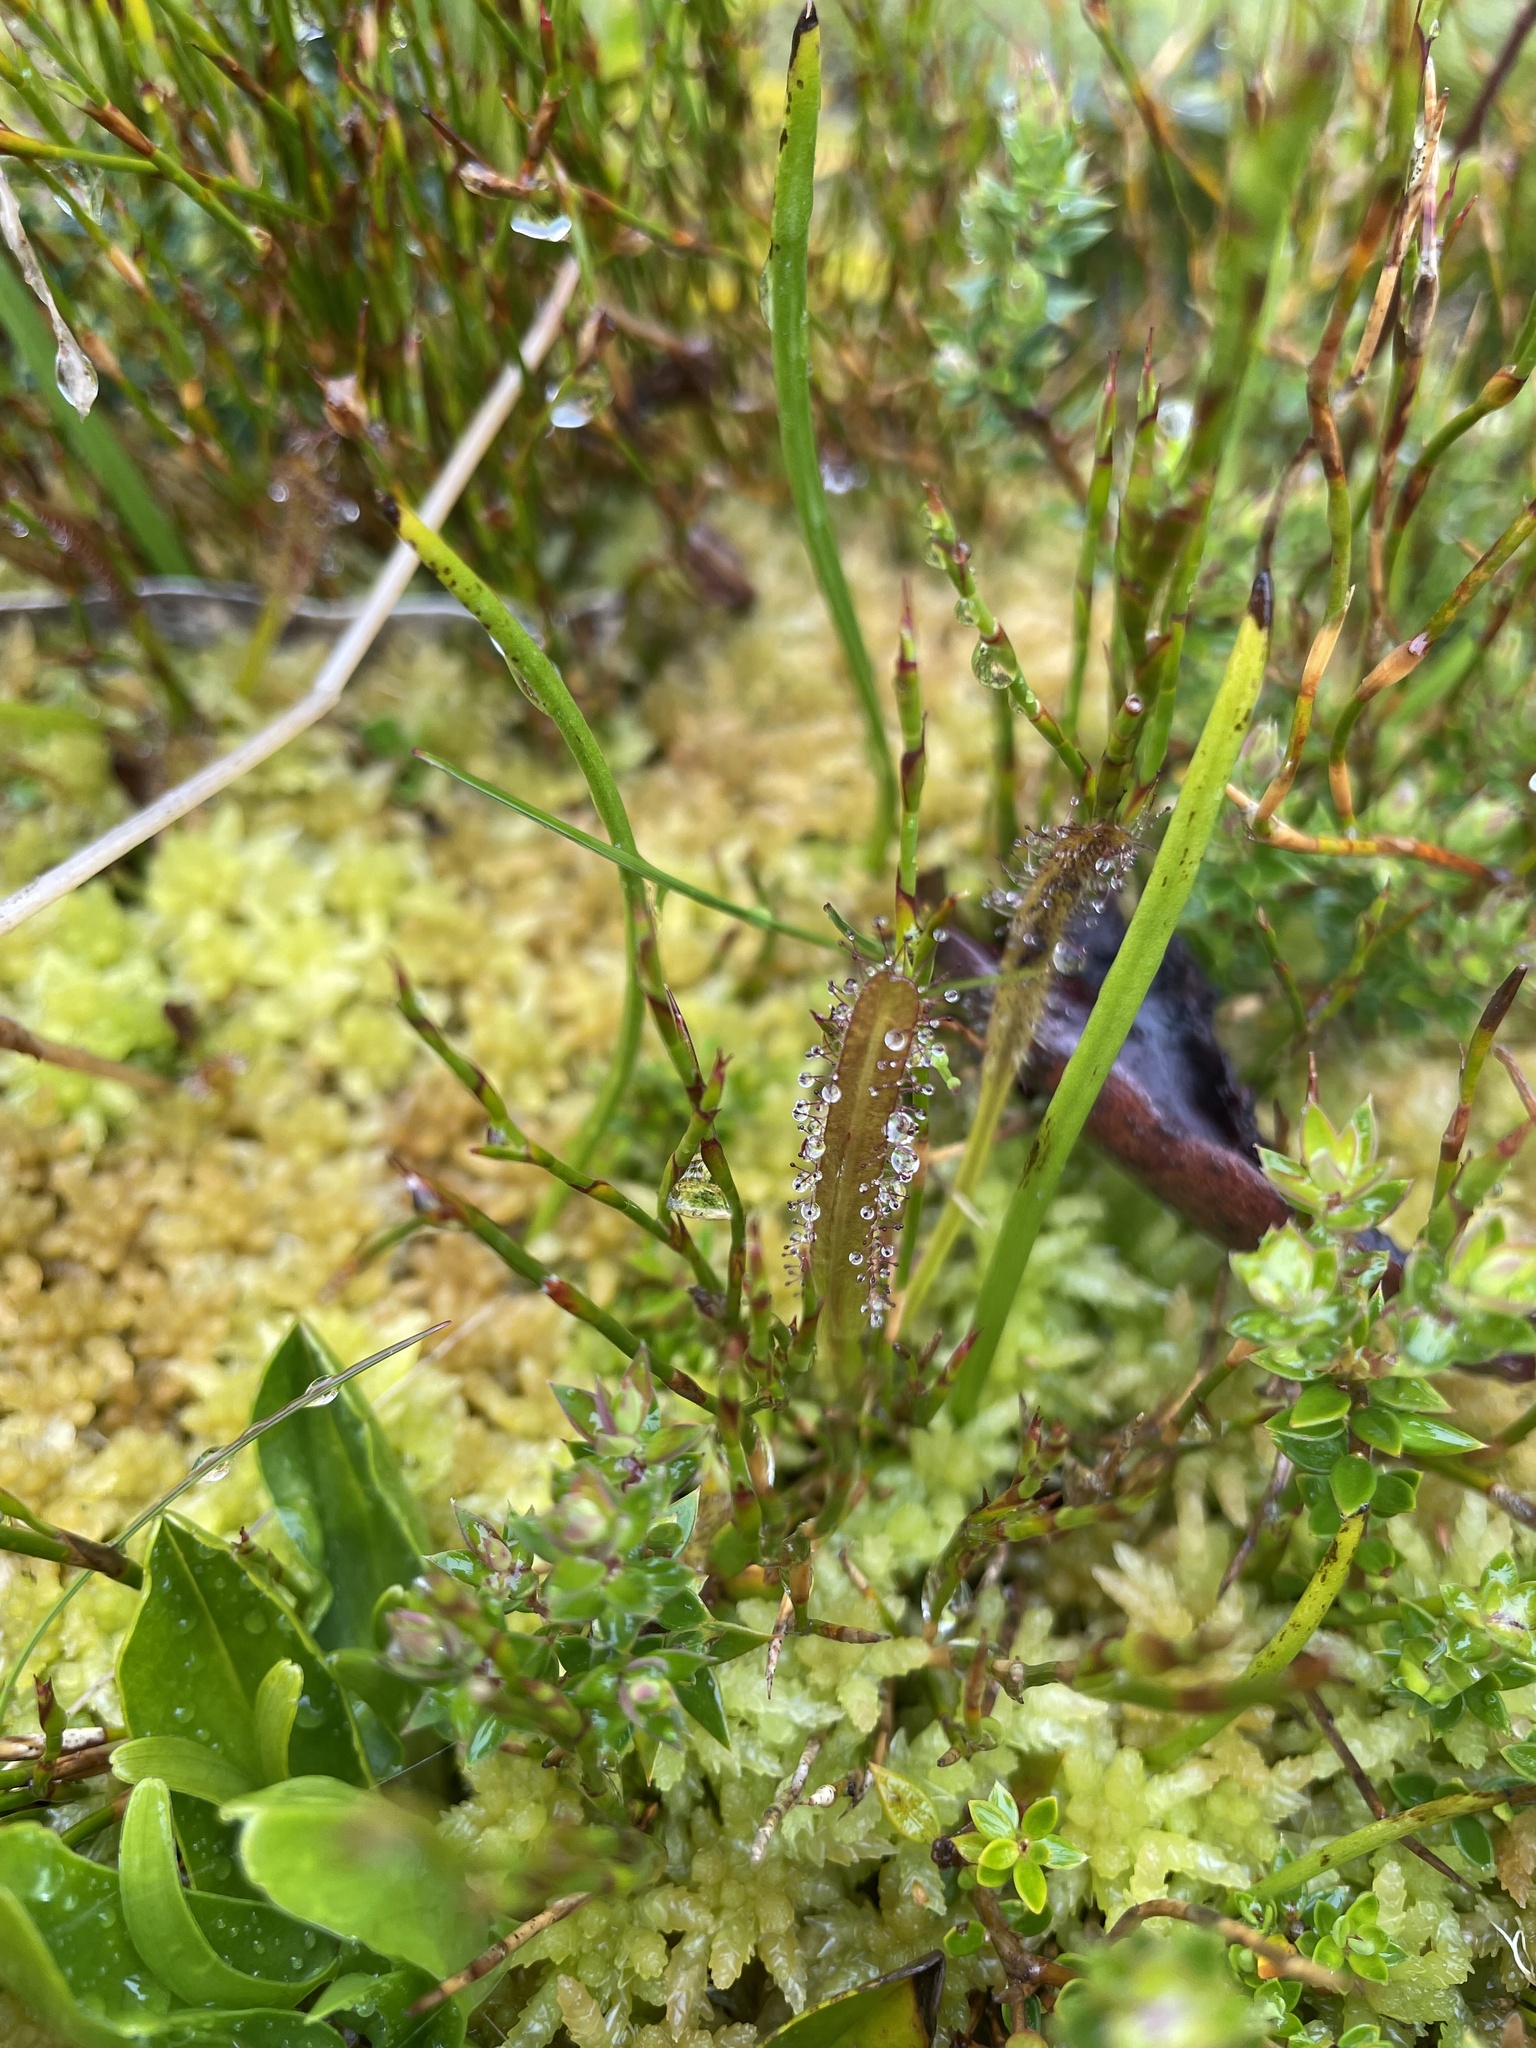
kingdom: Plantae
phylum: Tracheophyta
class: Magnoliopsida
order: Caryophyllales
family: Droseraceae
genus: Drosera
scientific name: Drosera arcturi
